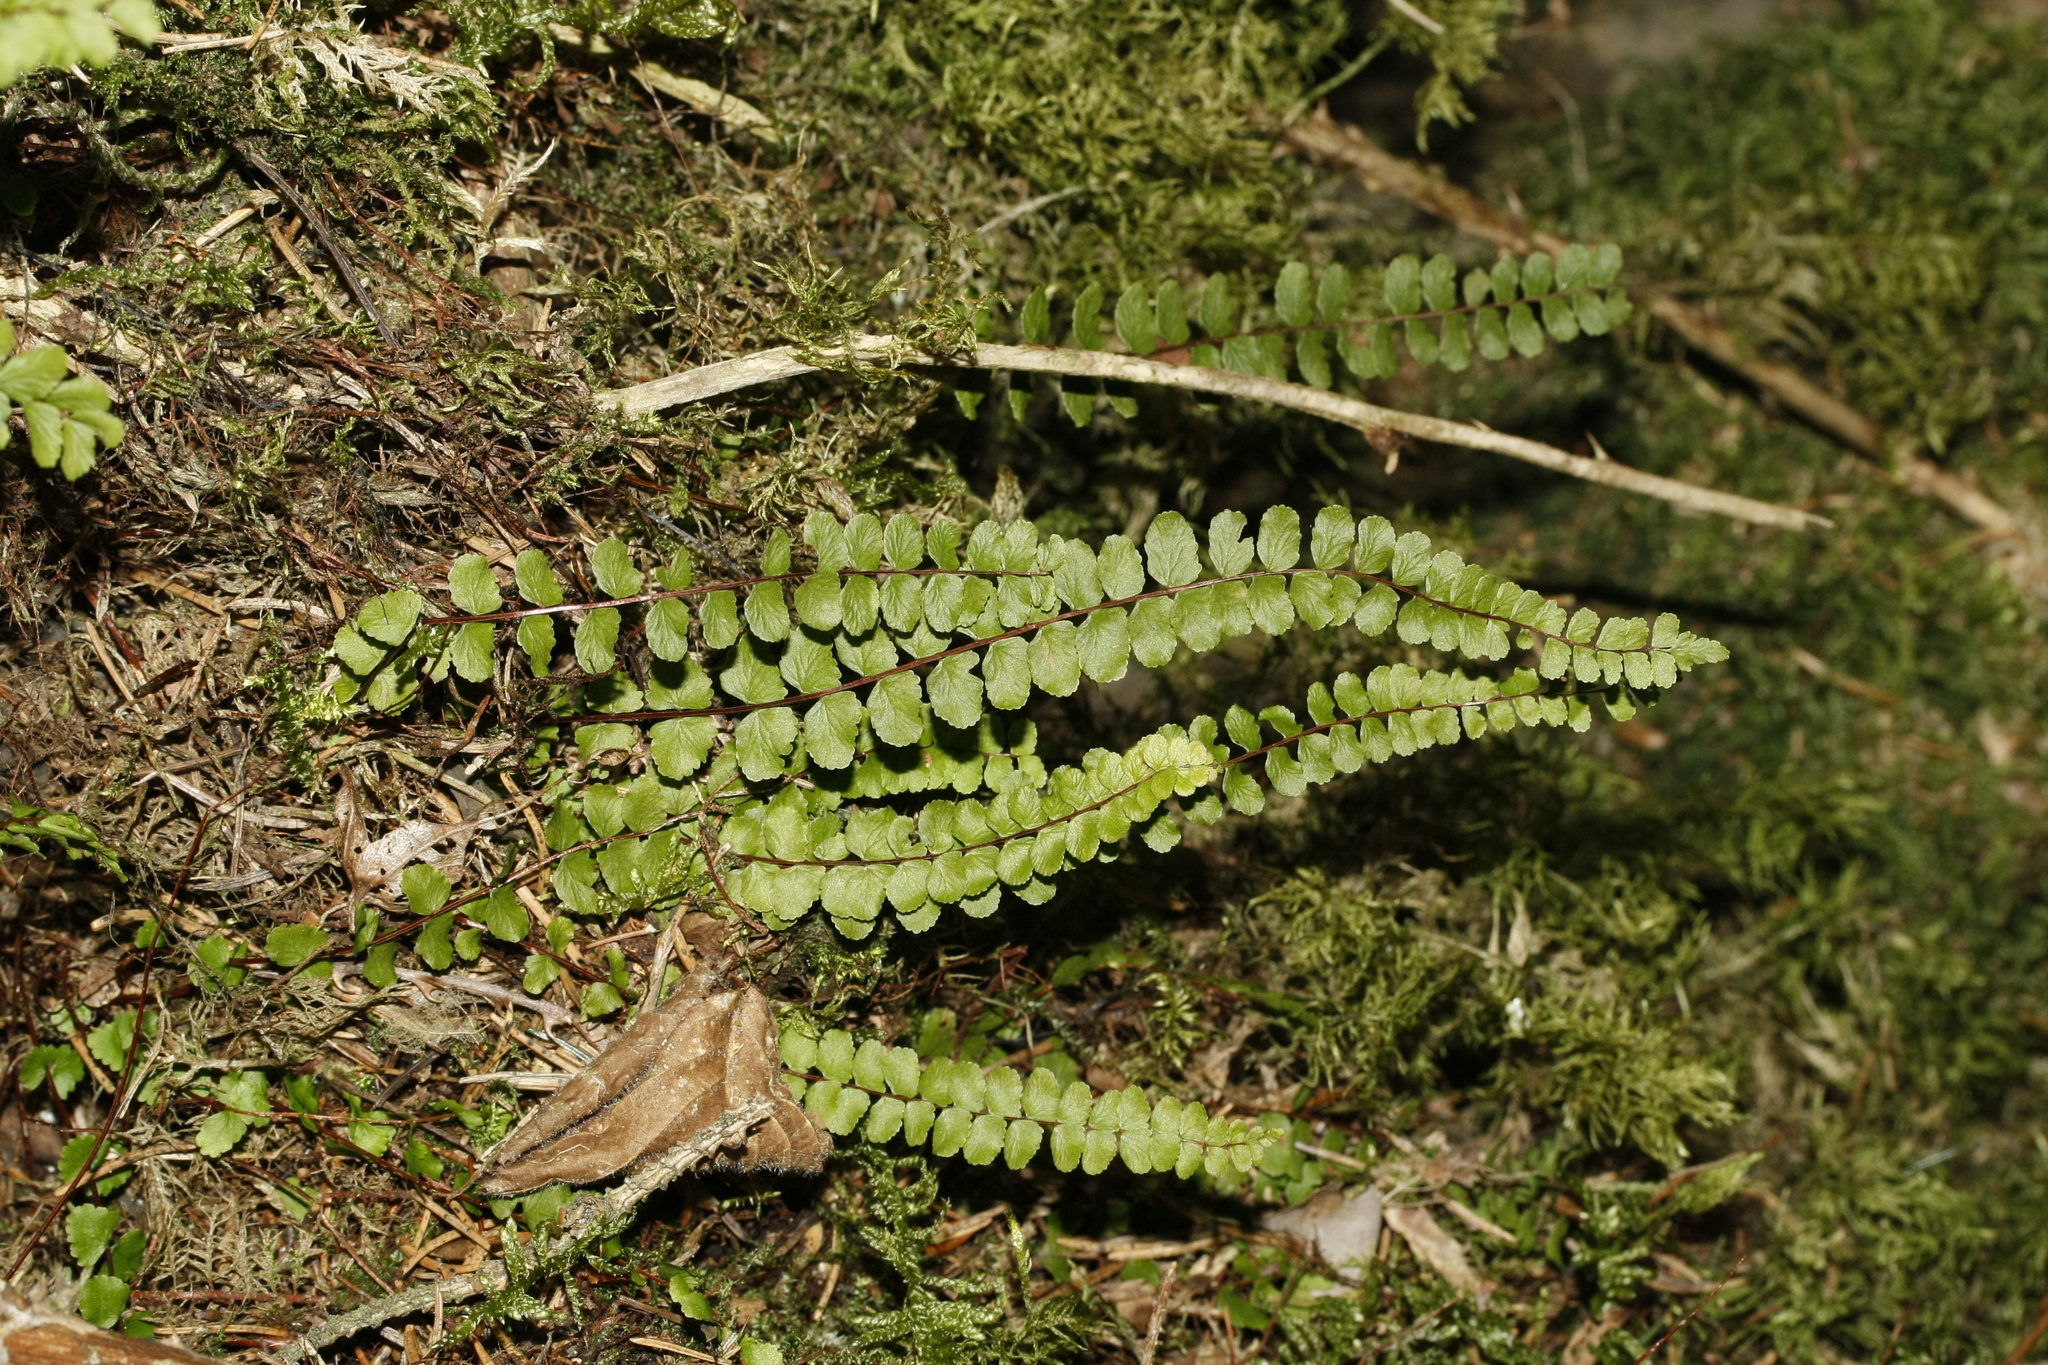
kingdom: Plantae
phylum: Tracheophyta
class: Polypodiopsida
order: Polypodiales
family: Aspleniaceae
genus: Asplenium
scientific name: Asplenium trichomanes
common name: Maidenhair spleenwort
